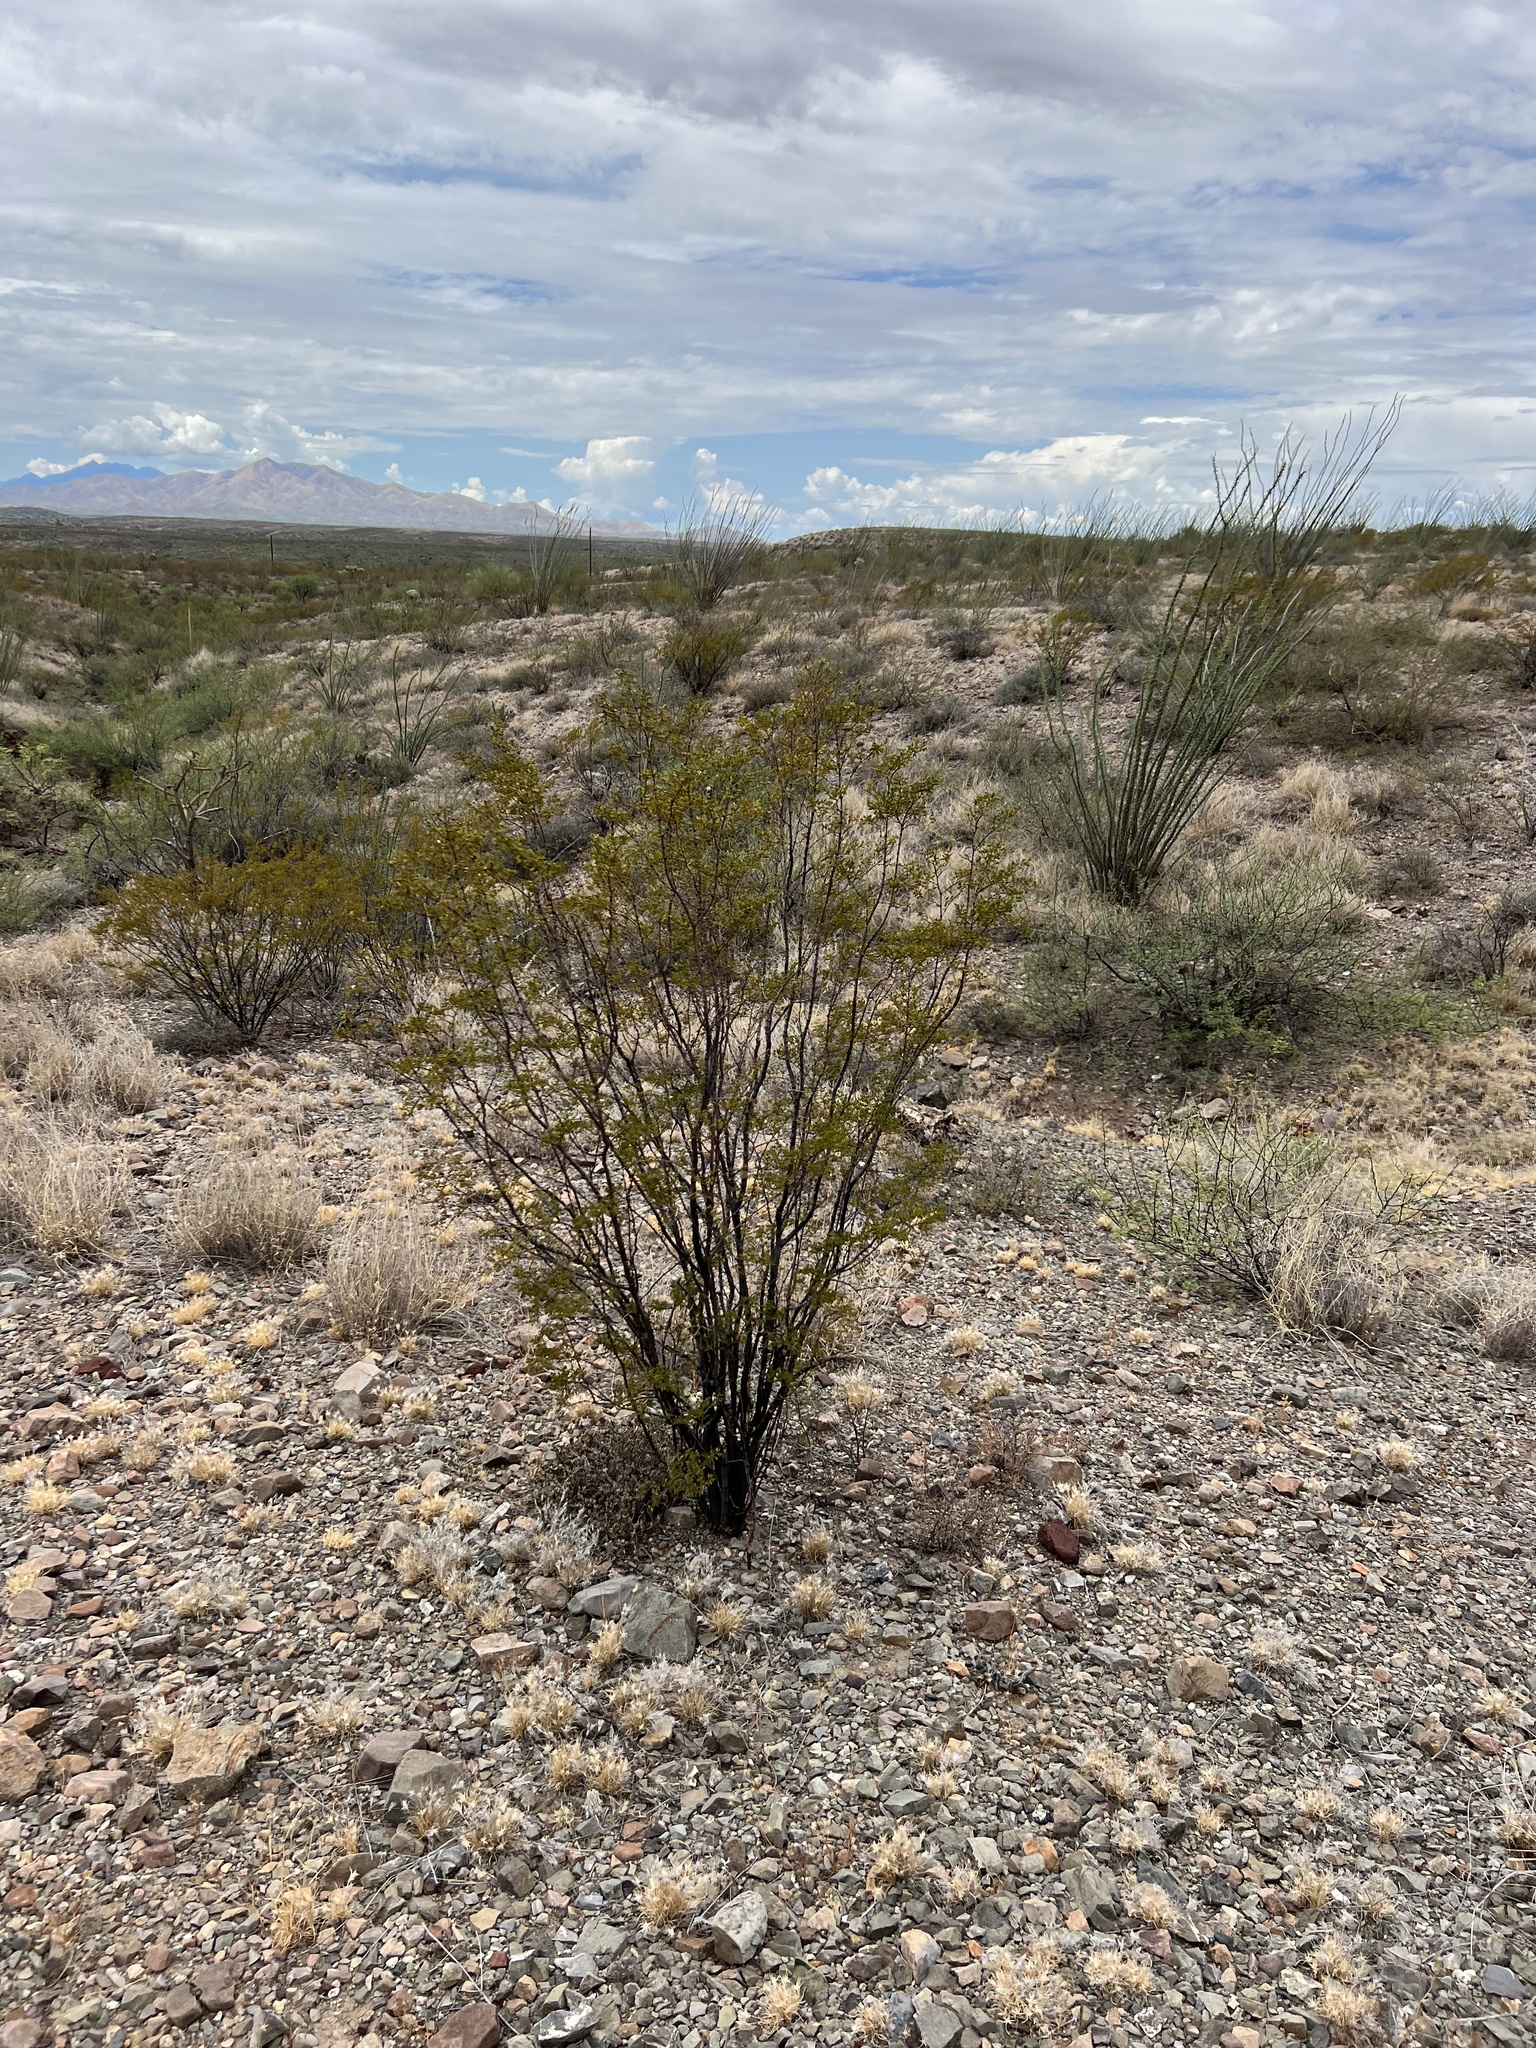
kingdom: Plantae
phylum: Tracheophyta
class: Magnoliopsida
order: Zygophyllales
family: Zygophyllaceae
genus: Larrea
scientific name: Larrea tridentata
